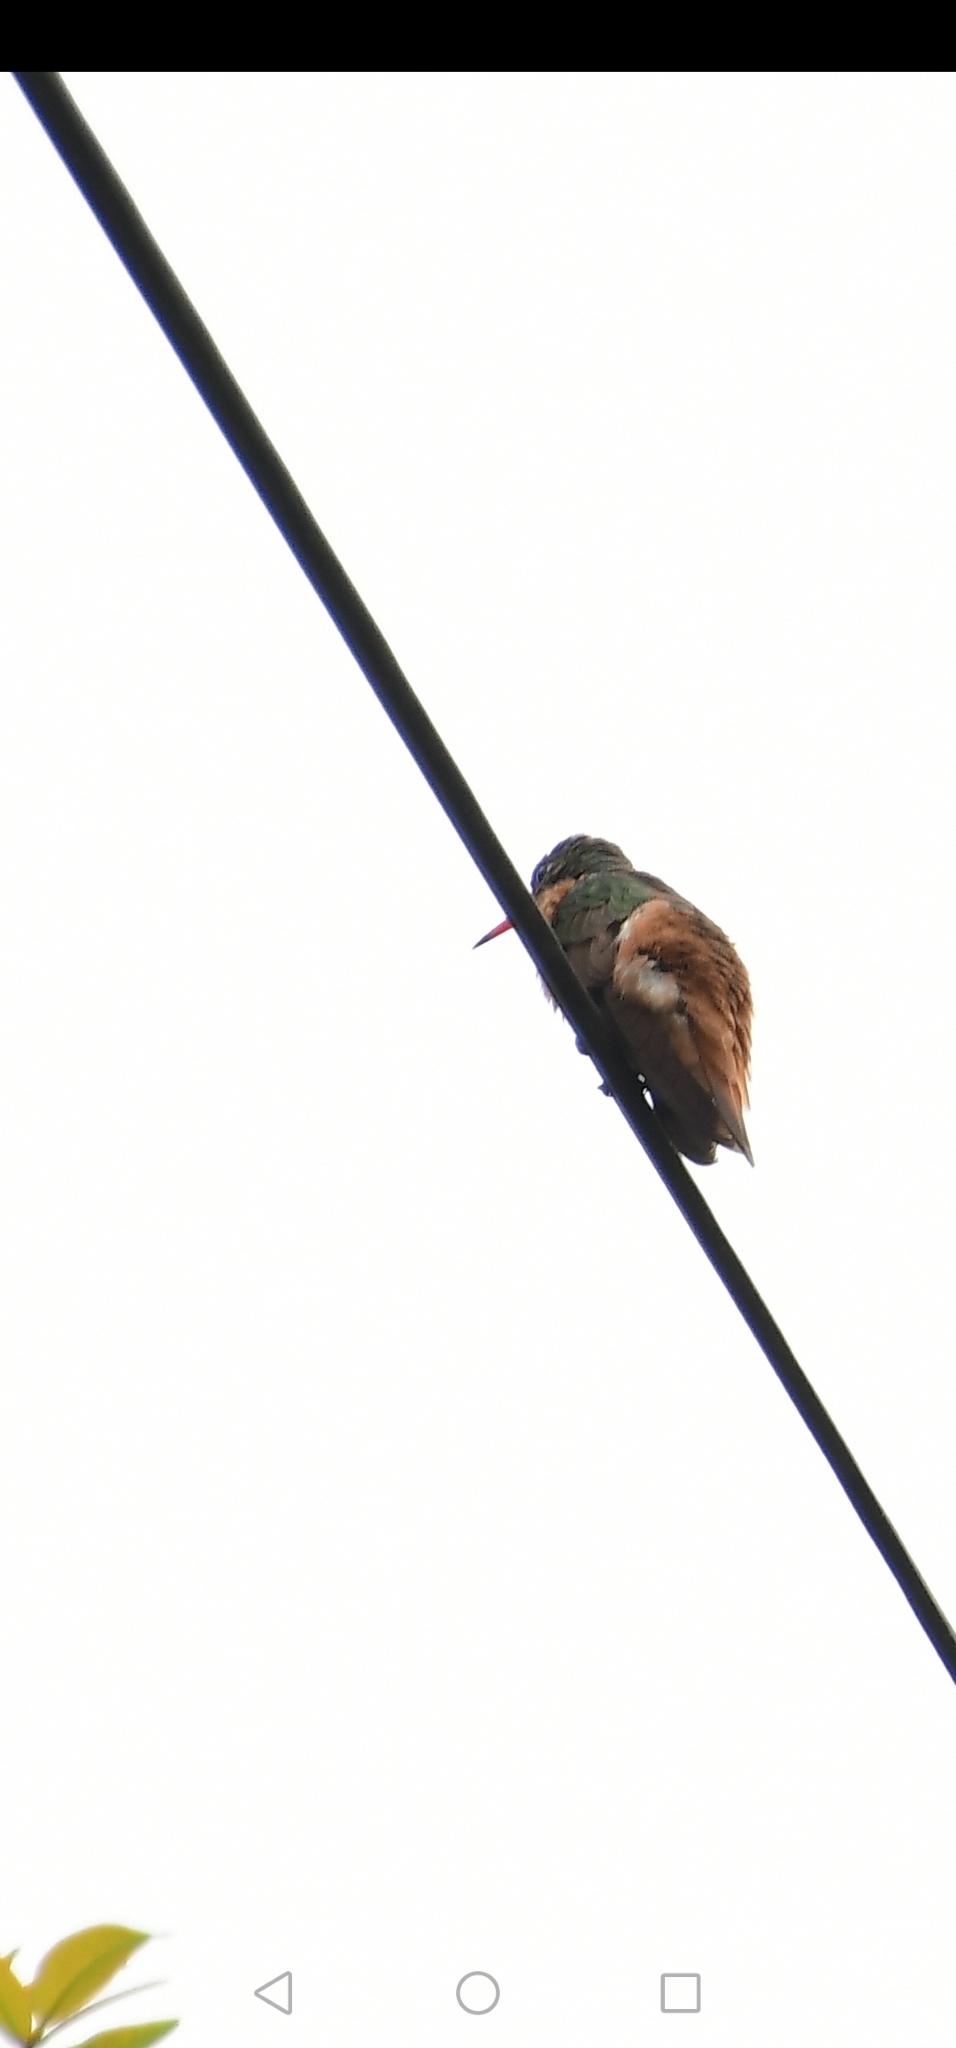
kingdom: Animalia
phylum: Chordata
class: Aves
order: Apodiformes
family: Trochilidae
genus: Amazilis
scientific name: Amazilis amazilia
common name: Amazilia hummingbird
